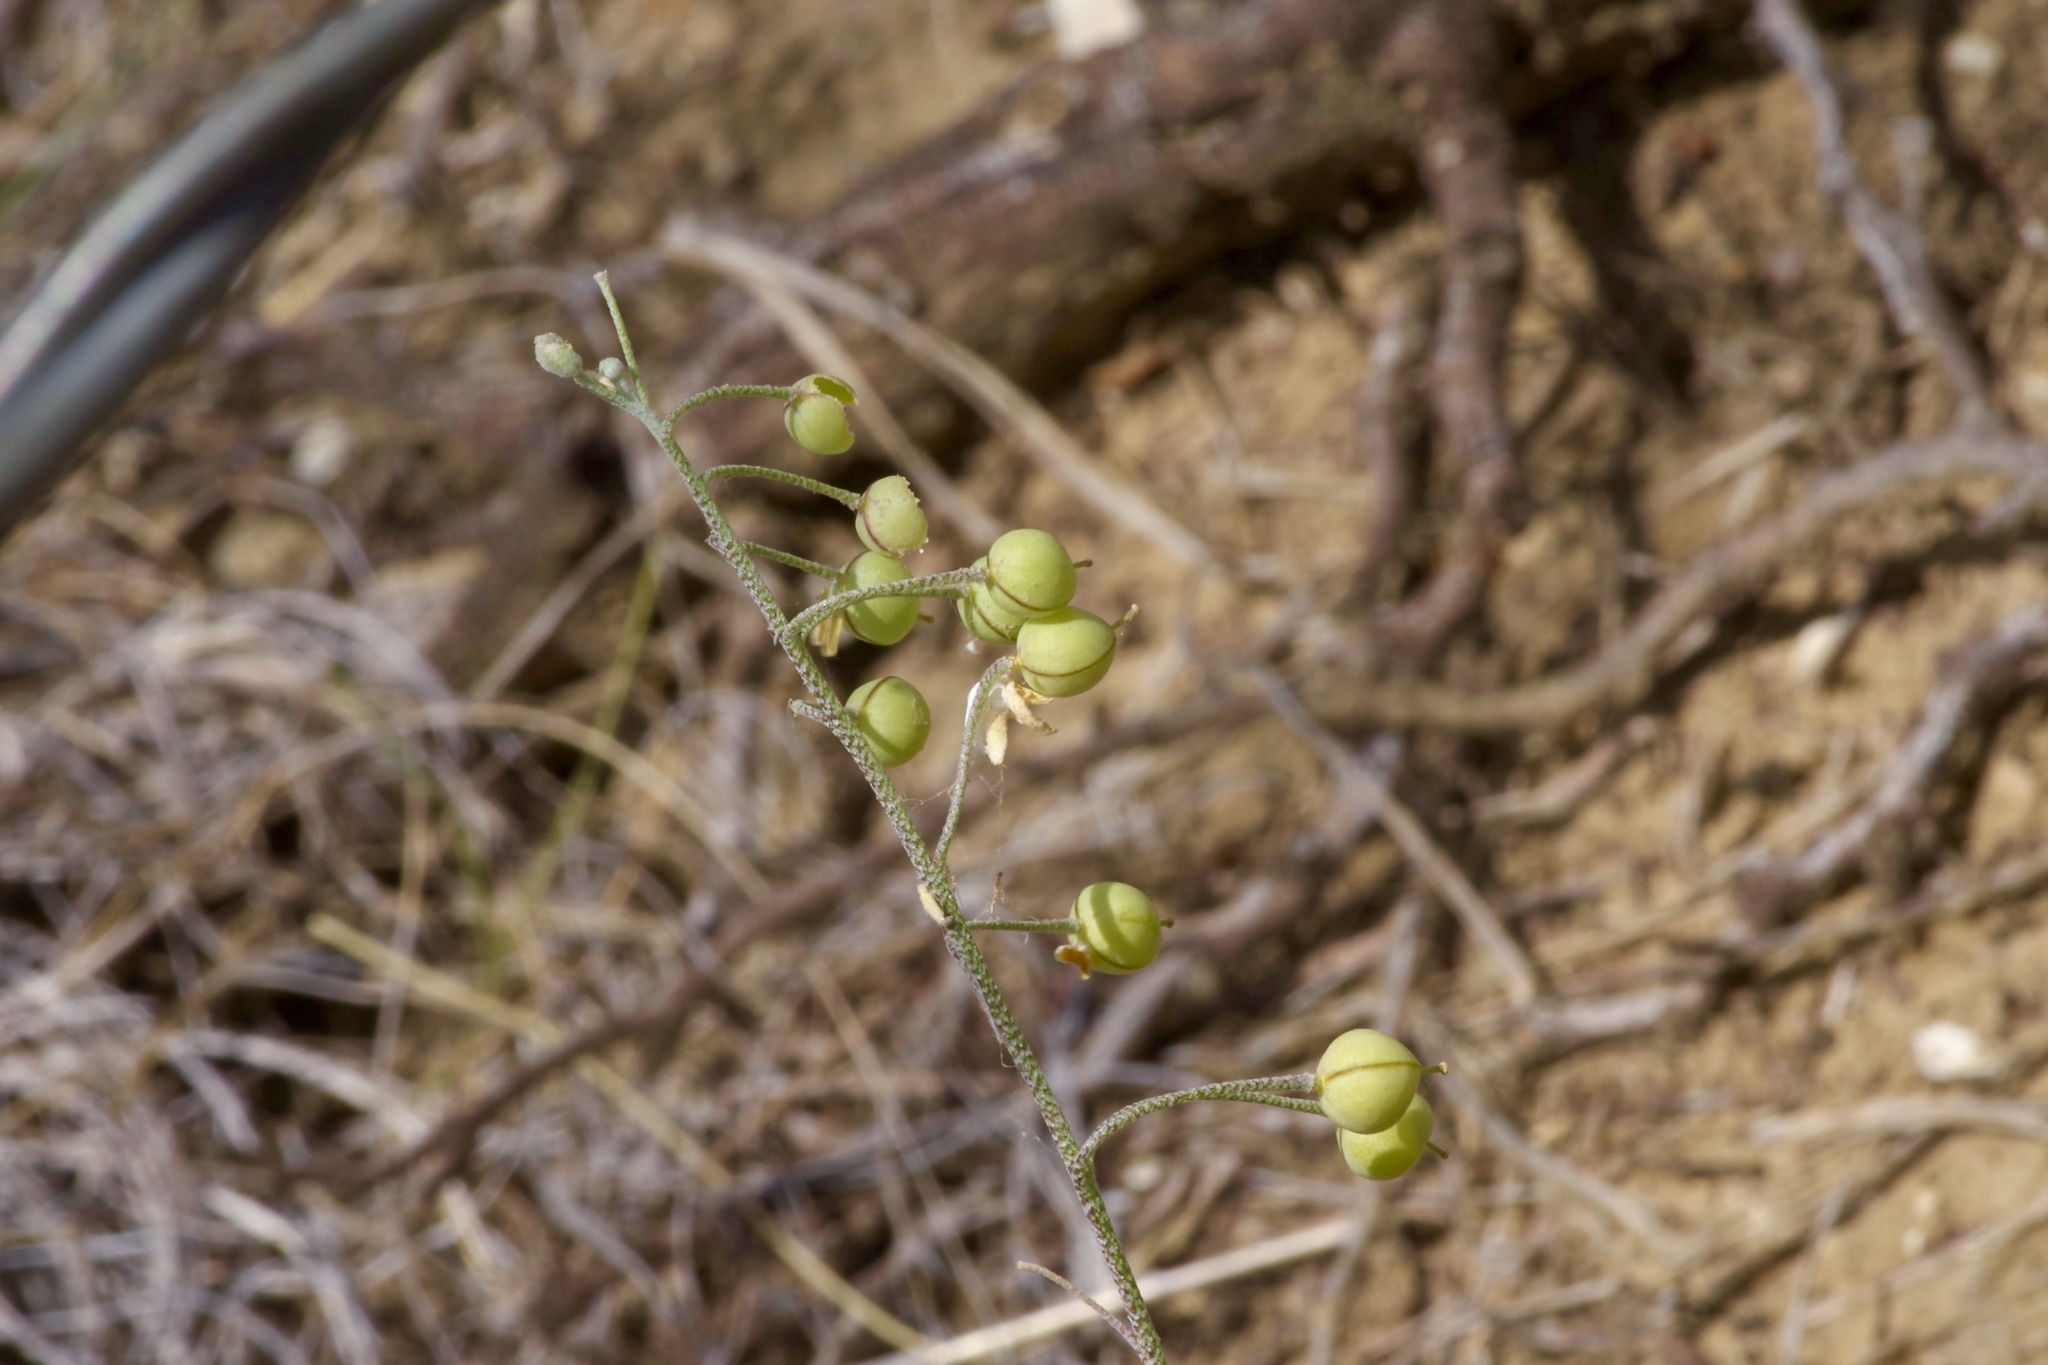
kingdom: Plantae
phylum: Tracheophyta
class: Magnoliopsida
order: Brassicales
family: Brassicaceae
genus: Physaria
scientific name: Physaria thamnophila
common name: Zapata bladderpod
